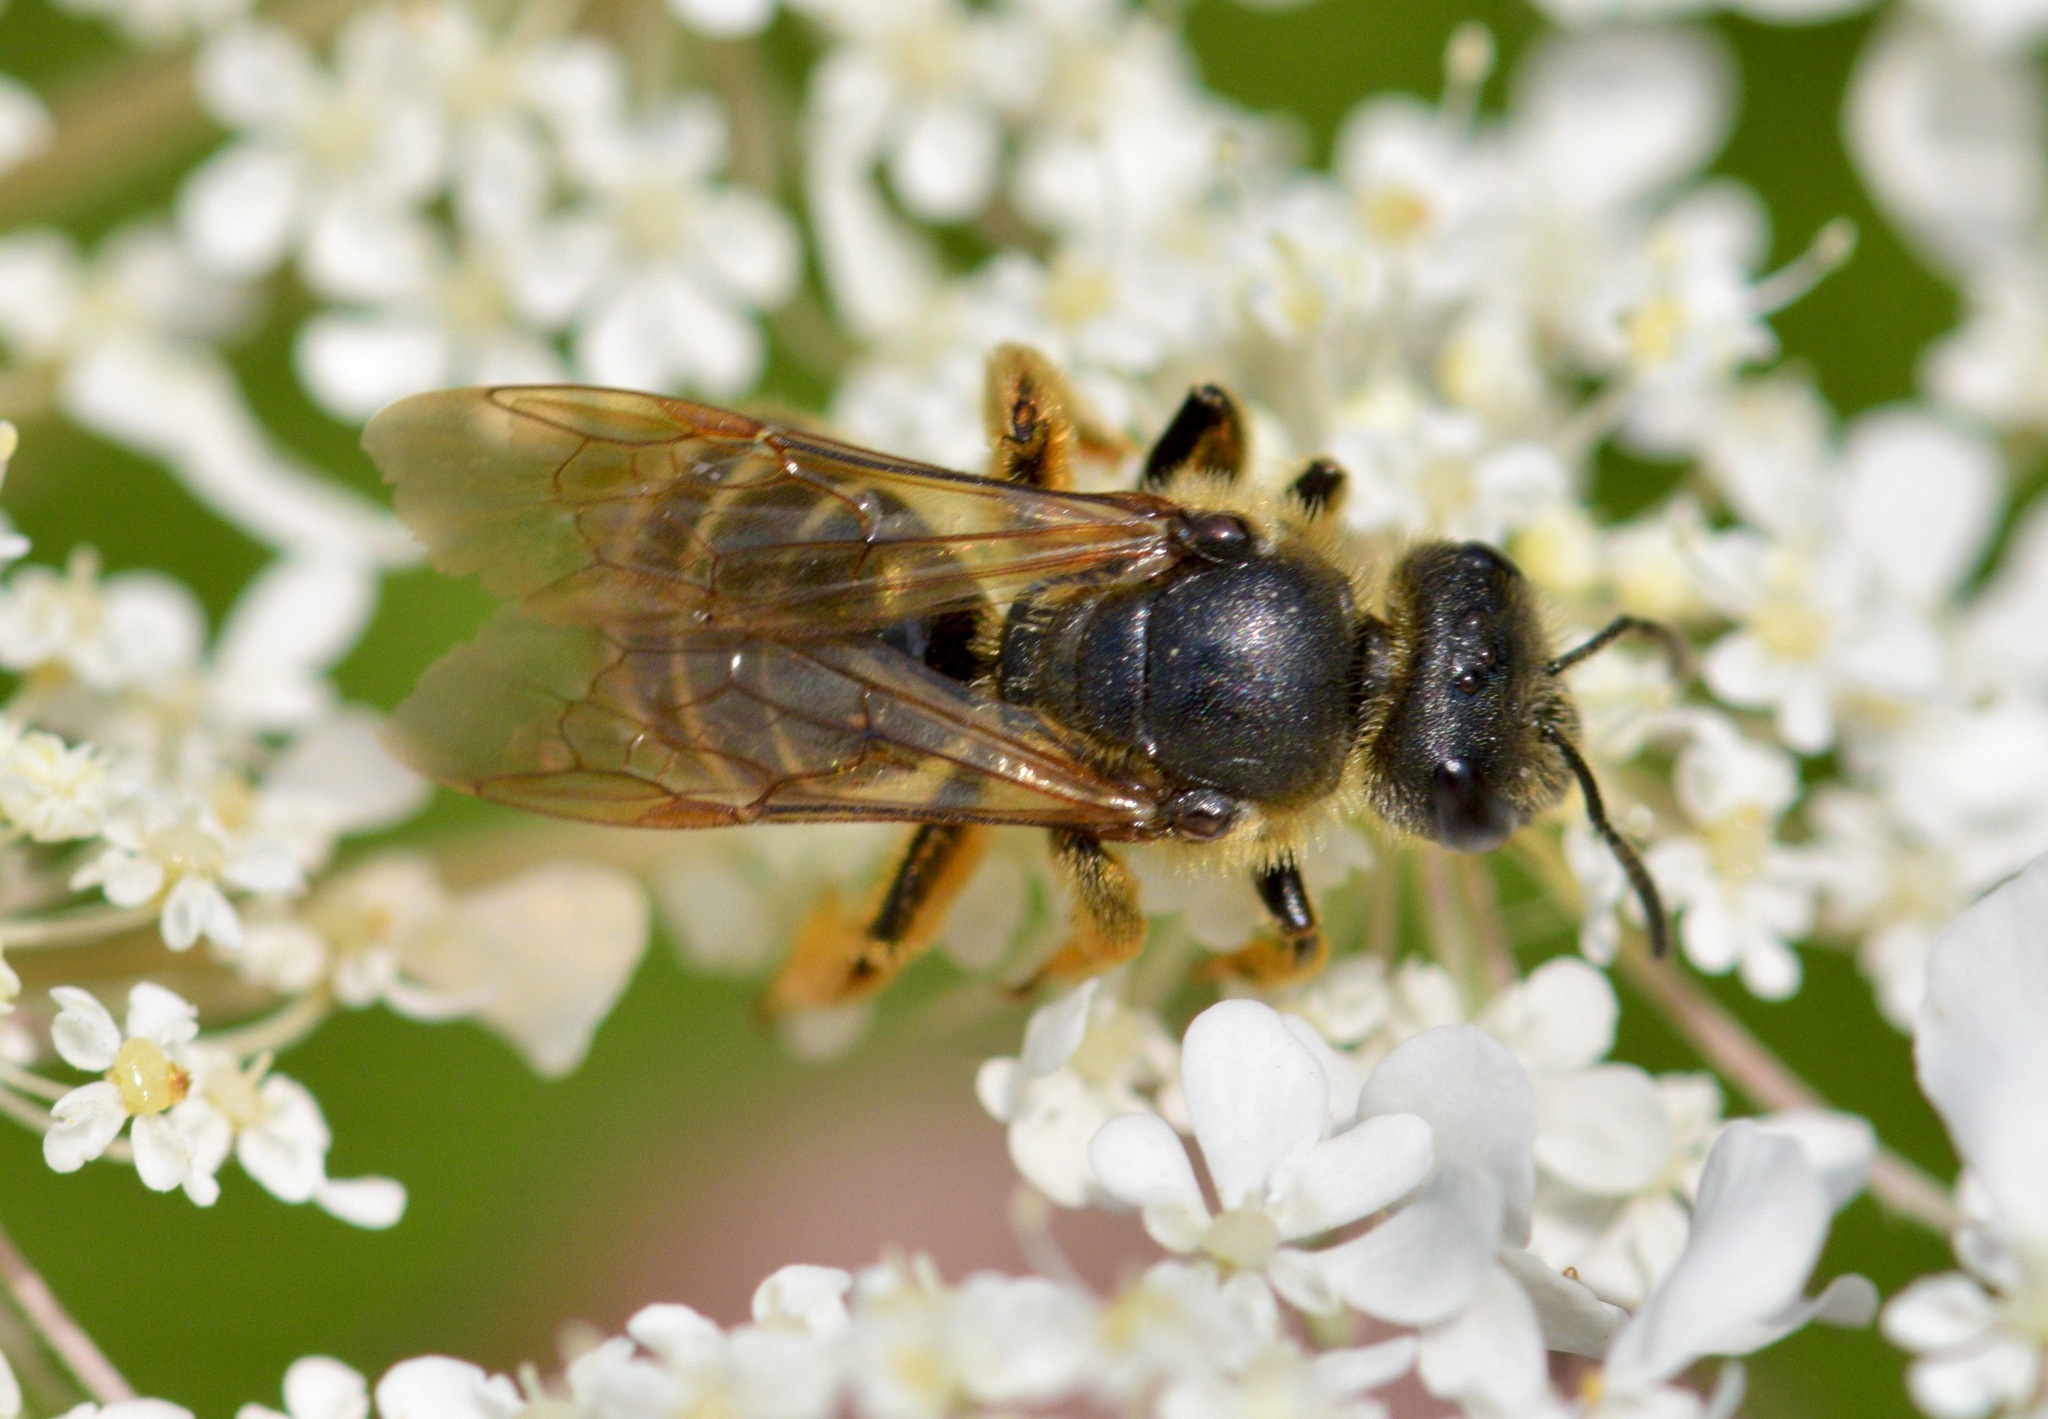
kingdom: Animalia
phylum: Arthropoda
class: Insecta
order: Hymenoptera
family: Halictidae
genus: Halictus
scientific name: Halictus rubicundus
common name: Orange-legged furrow bee
